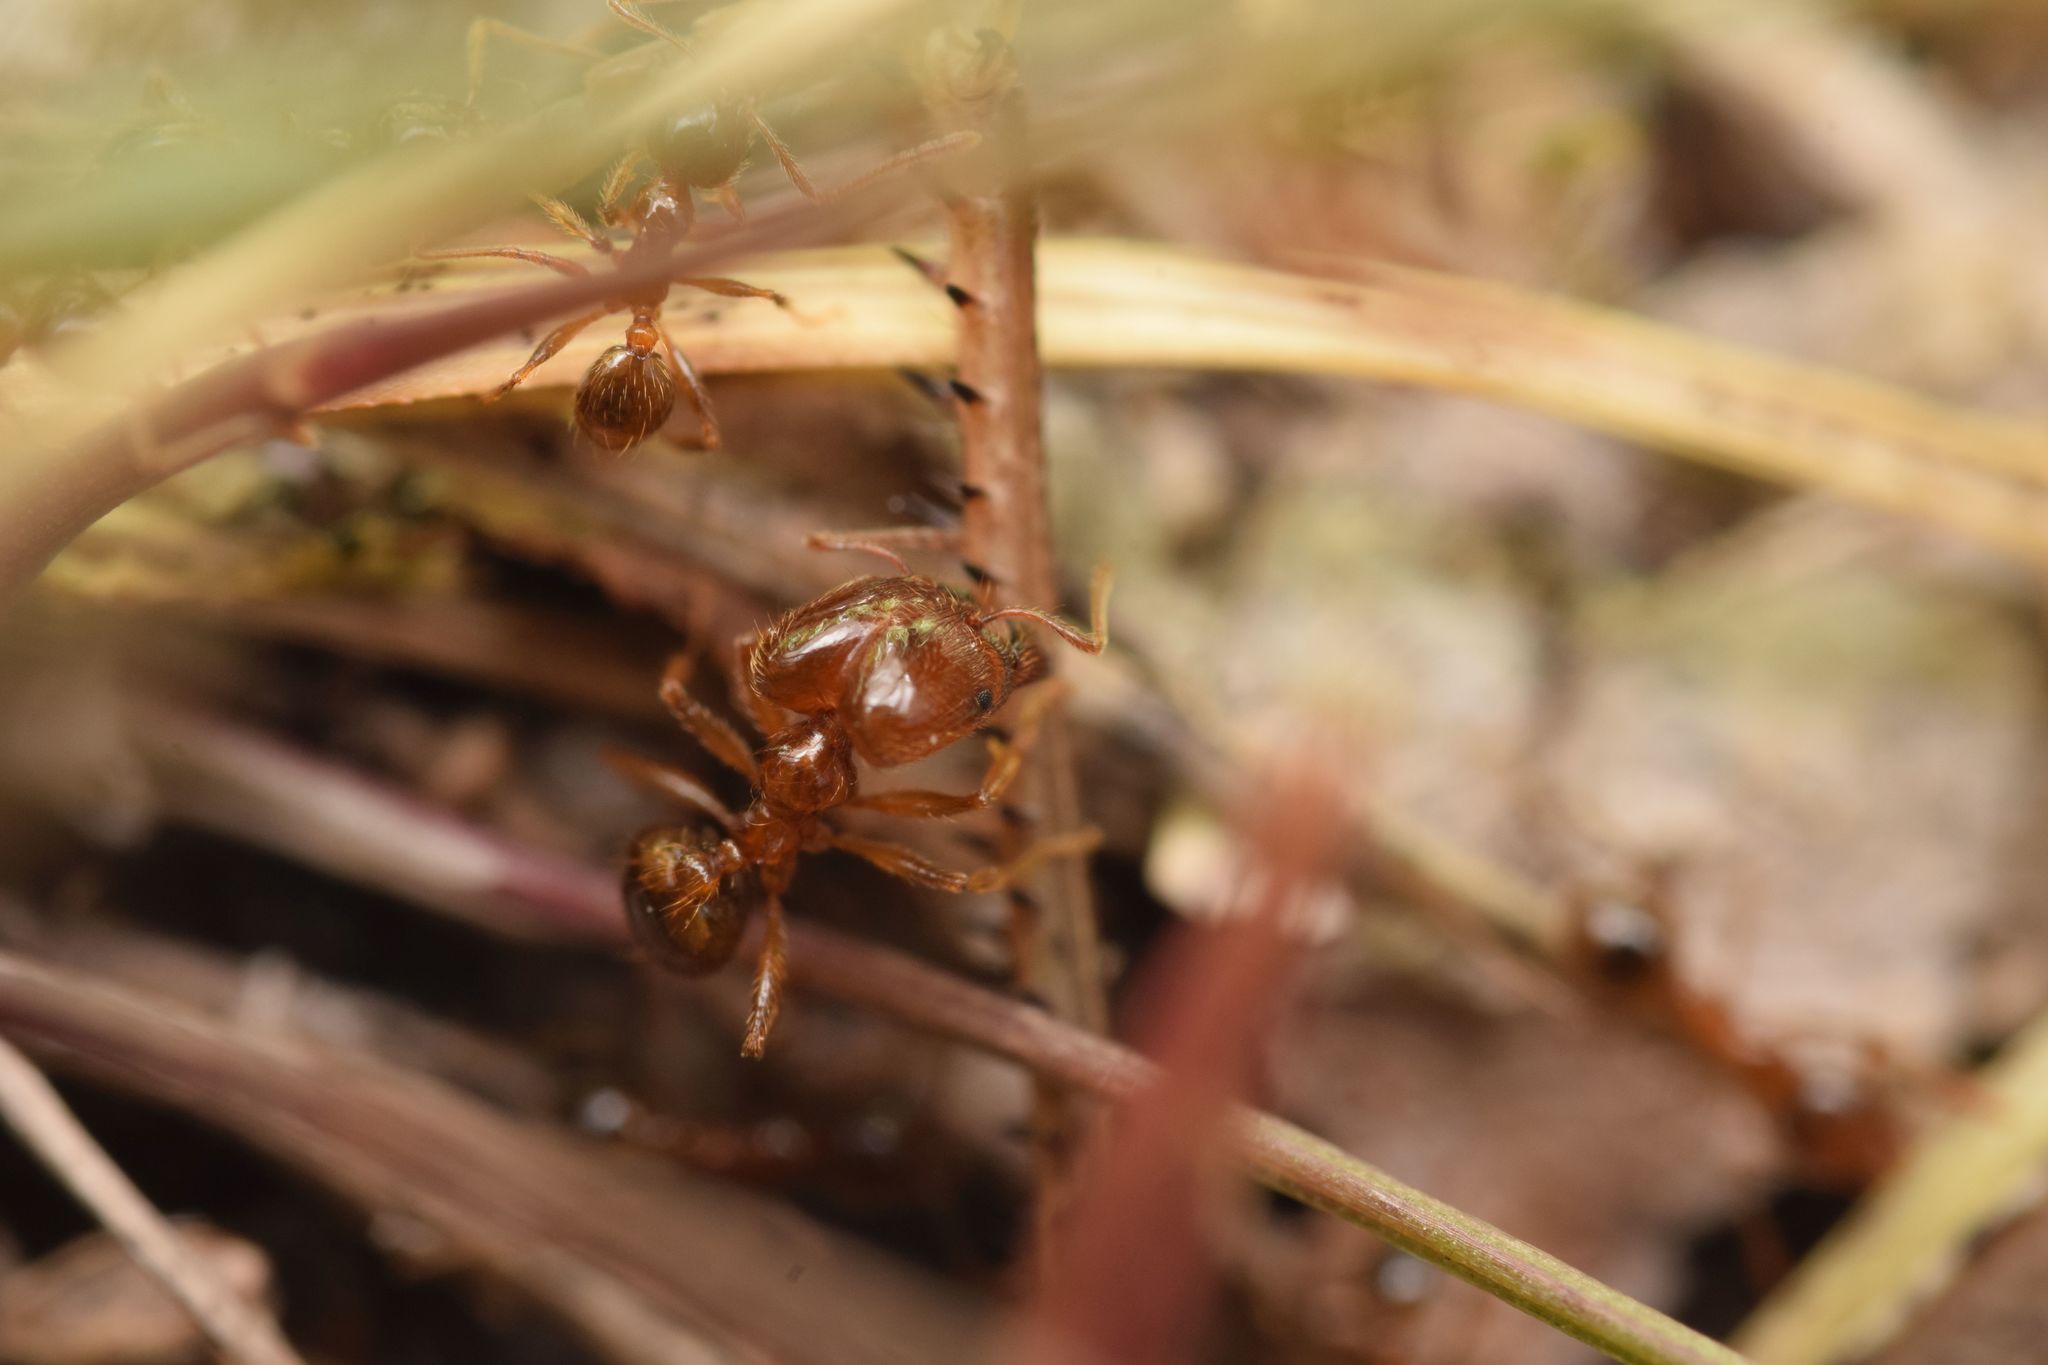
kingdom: Animalia
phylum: Arthropoda
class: Insecta
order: Hymenoptera
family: Formicidae
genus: Pheidole
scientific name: Pheidole pallidula
